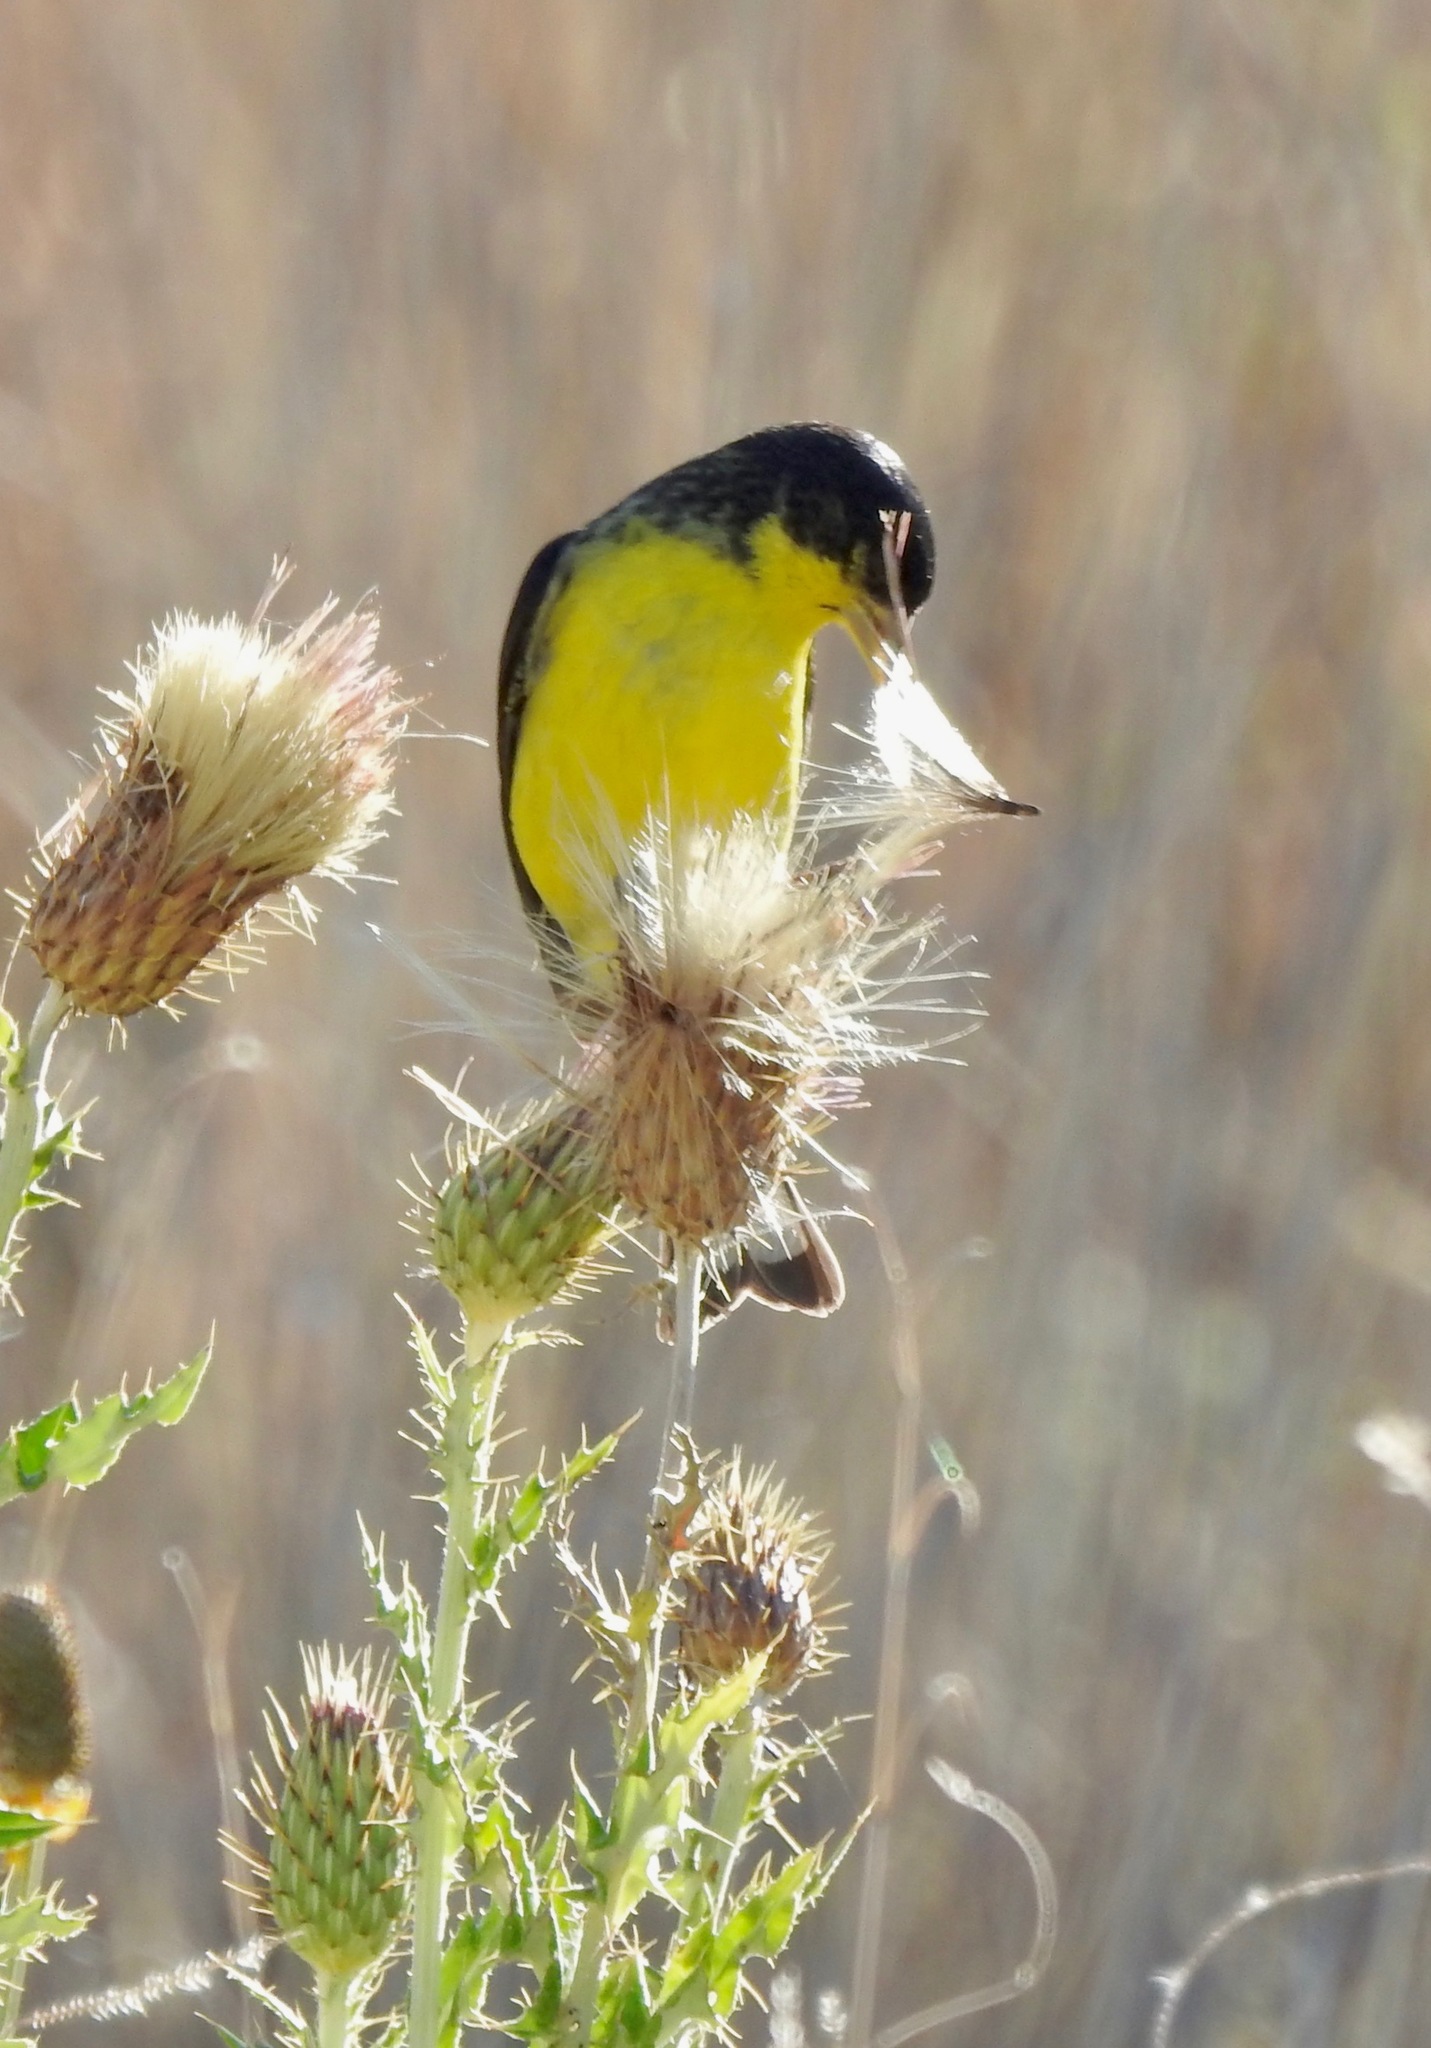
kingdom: Animalia
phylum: Chordata
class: Aves
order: Passeriformes
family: Fringillidae
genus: Spinus
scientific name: Spinus psaltria
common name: Lesser goldfinch
